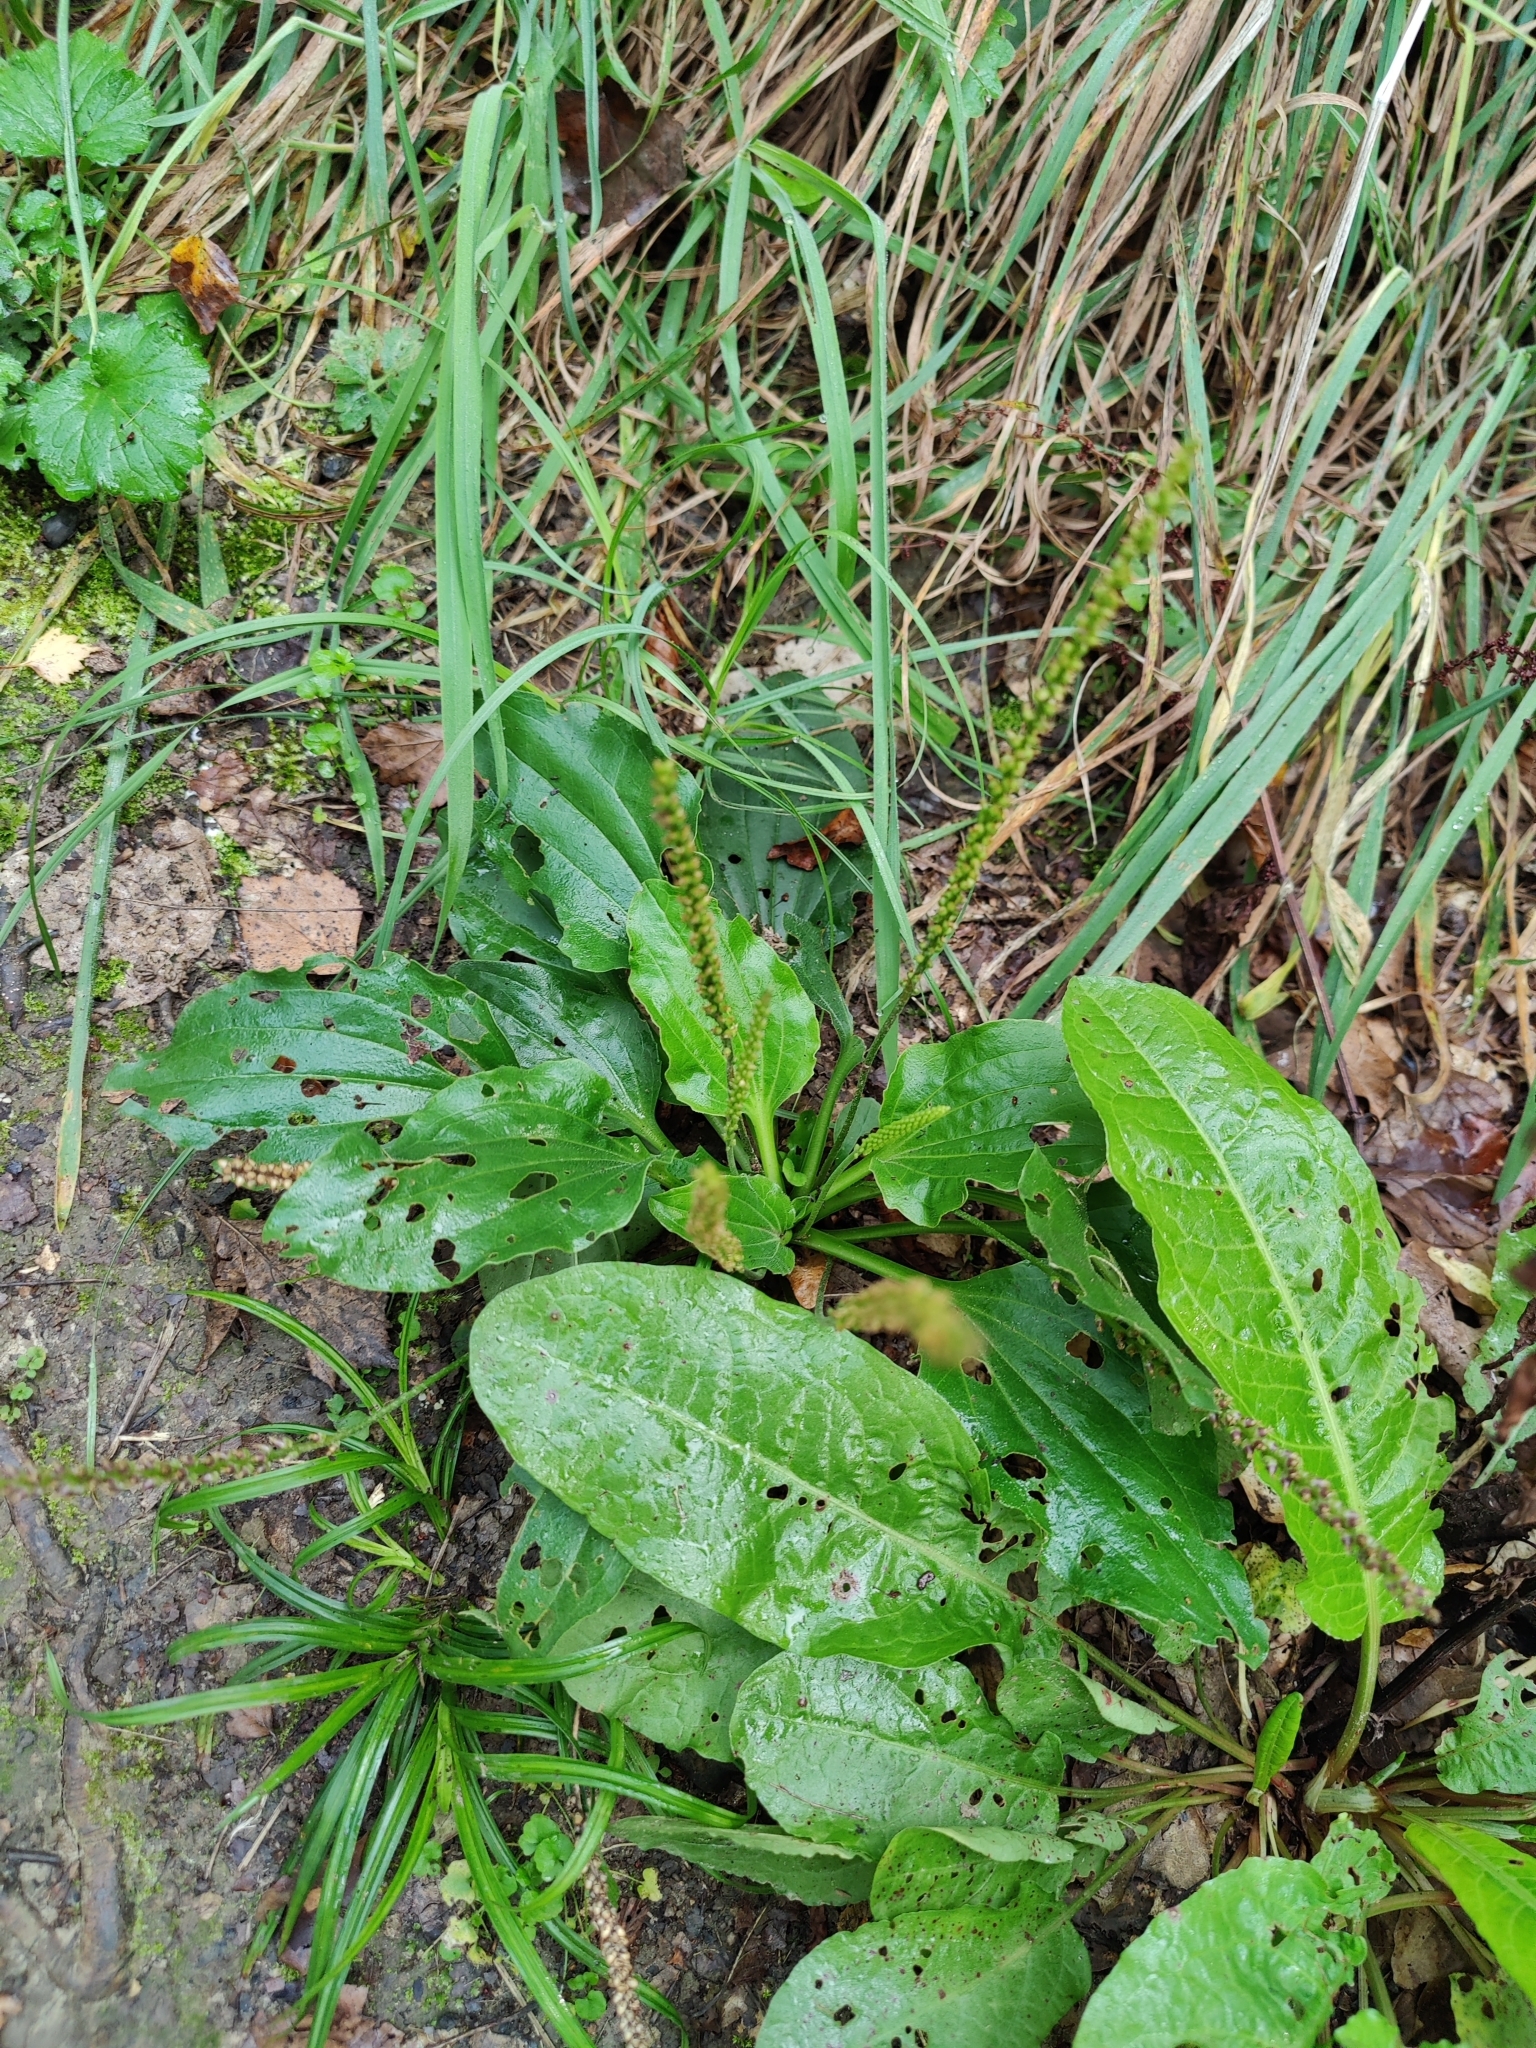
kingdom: Plantae
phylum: Tracheophyta
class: Magnoliopsida
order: Lamiales
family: Plantaginaceae
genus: Plantago
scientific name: Plantago major
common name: Common plantain
